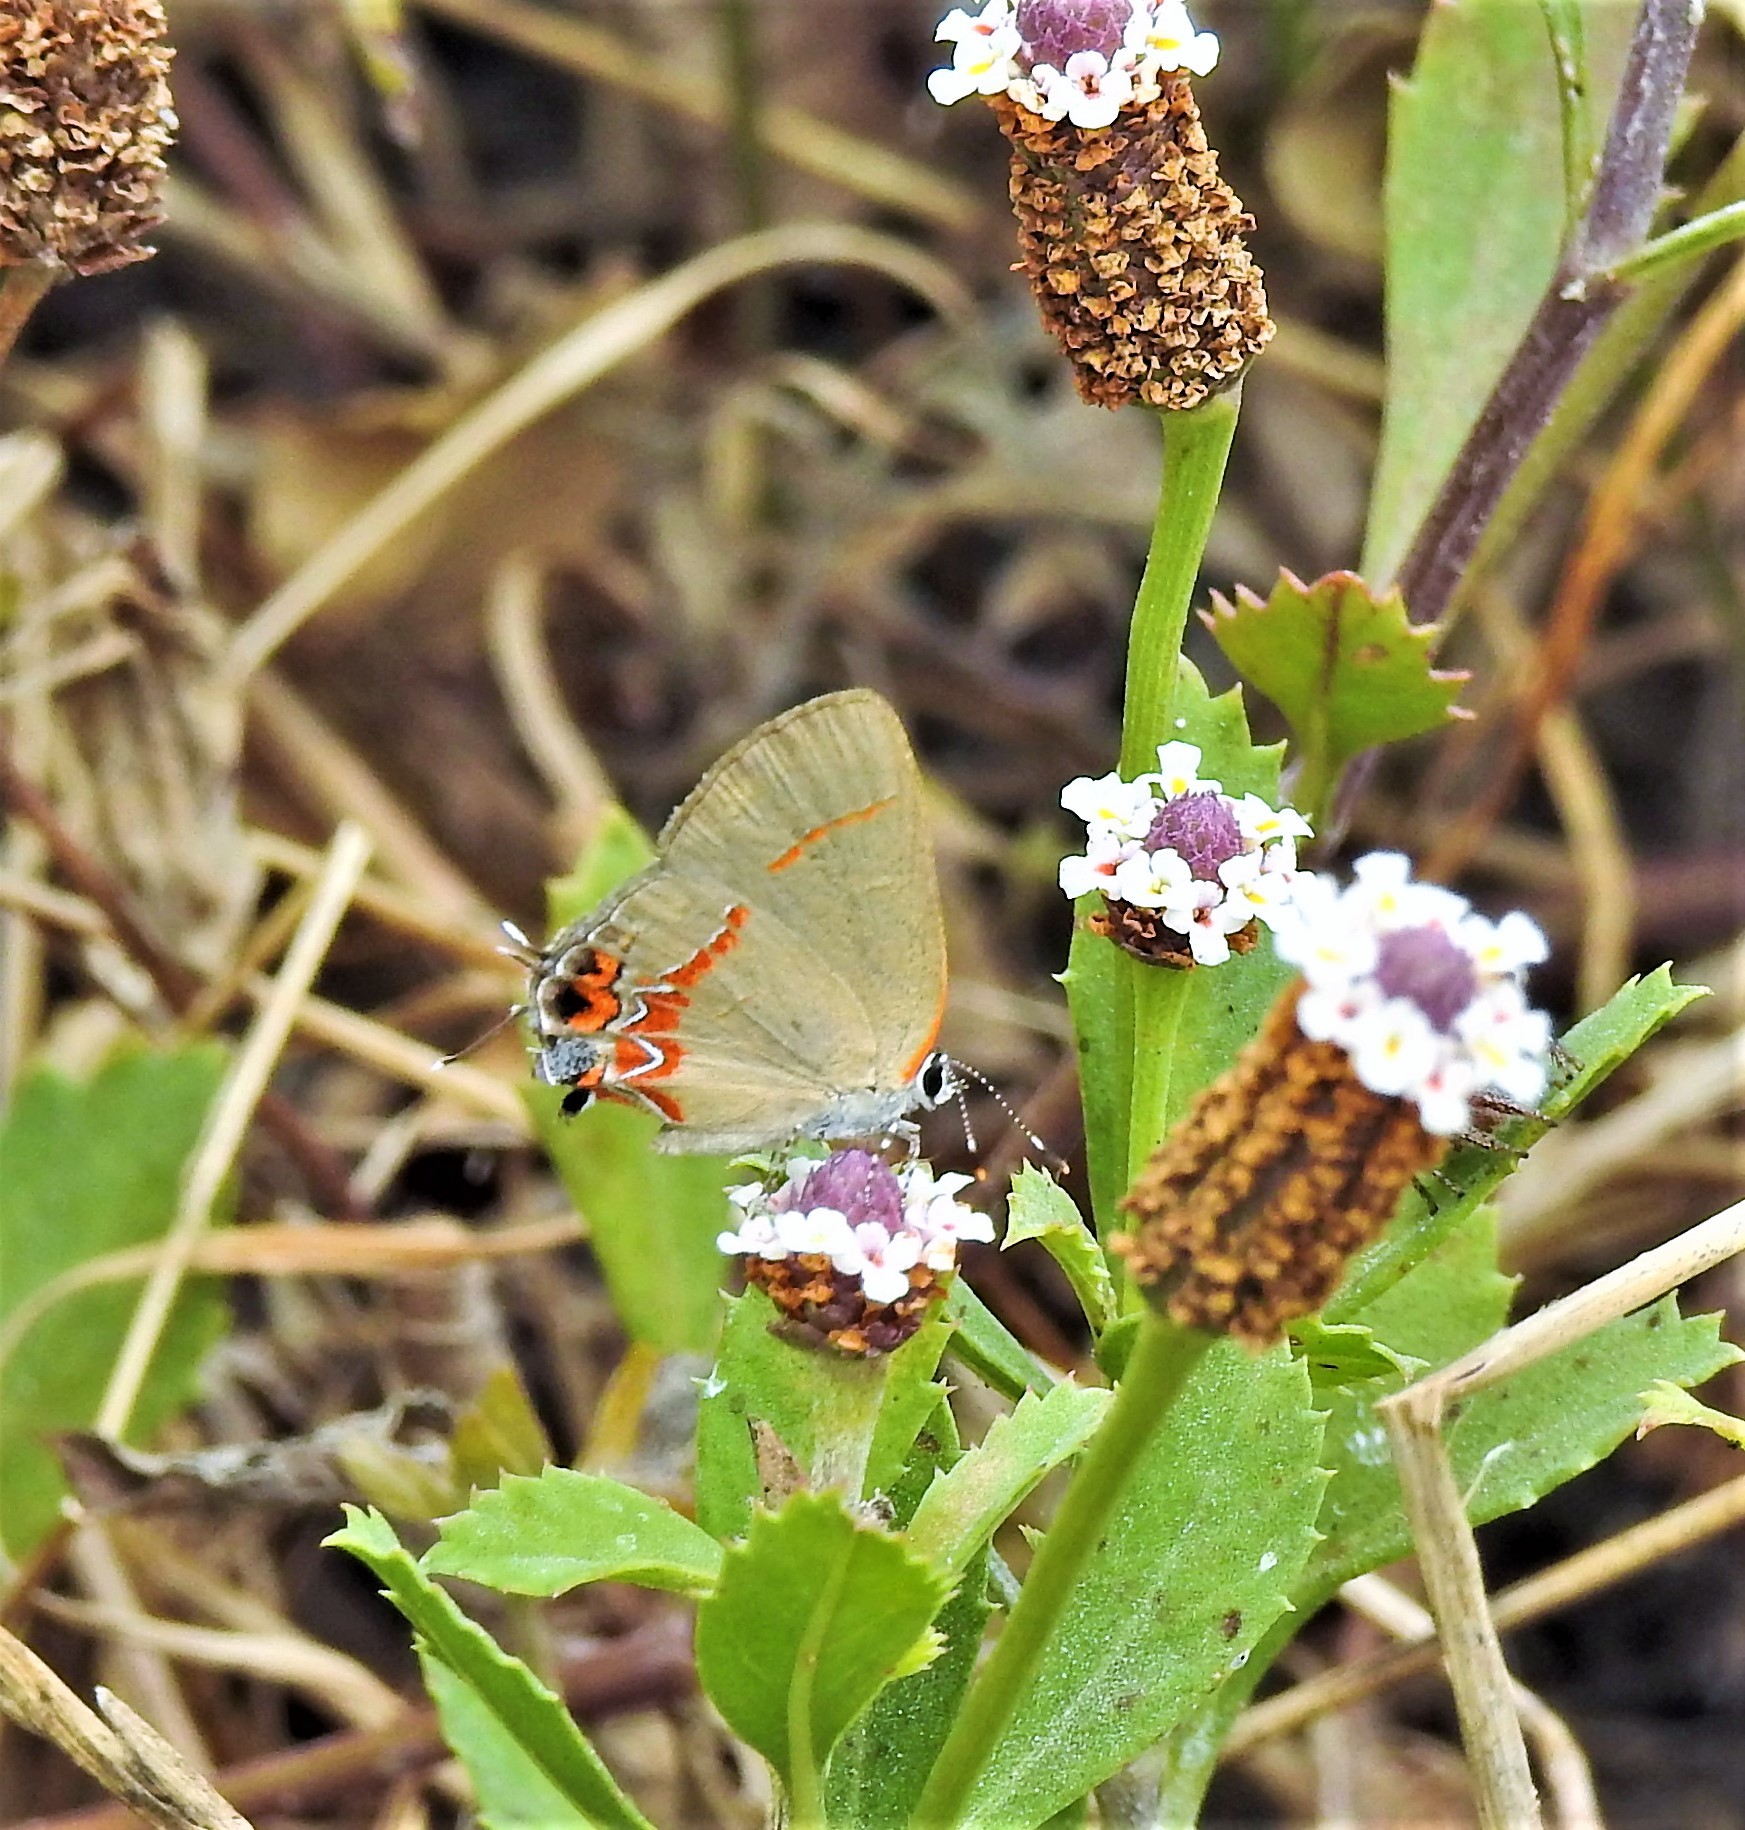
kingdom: Animalia
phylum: Arthropoda
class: Insecta
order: Lepidoptera
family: Lycaenidae
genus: Calycopis
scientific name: Calycopis isobeon
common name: Dusky-blue groundstreak
